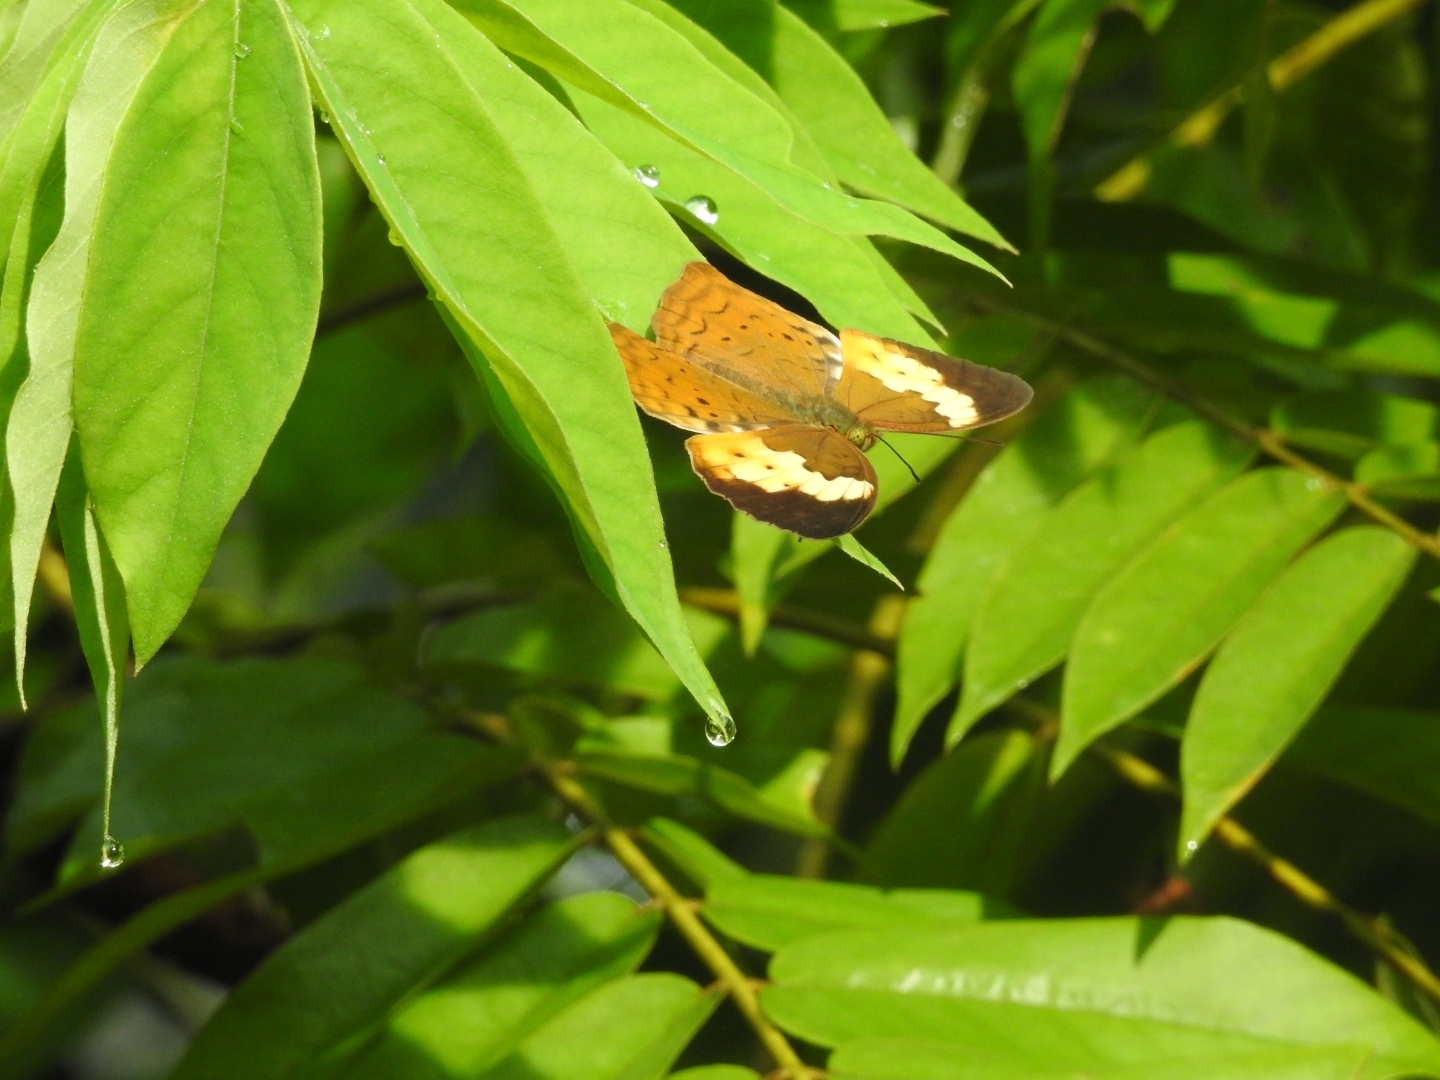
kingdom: Animalia
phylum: Arthropoda
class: Insecta
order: Lepidoptera
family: Nymphalidae
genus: Cupha
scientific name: Cupha erymanthis
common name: Rustic
